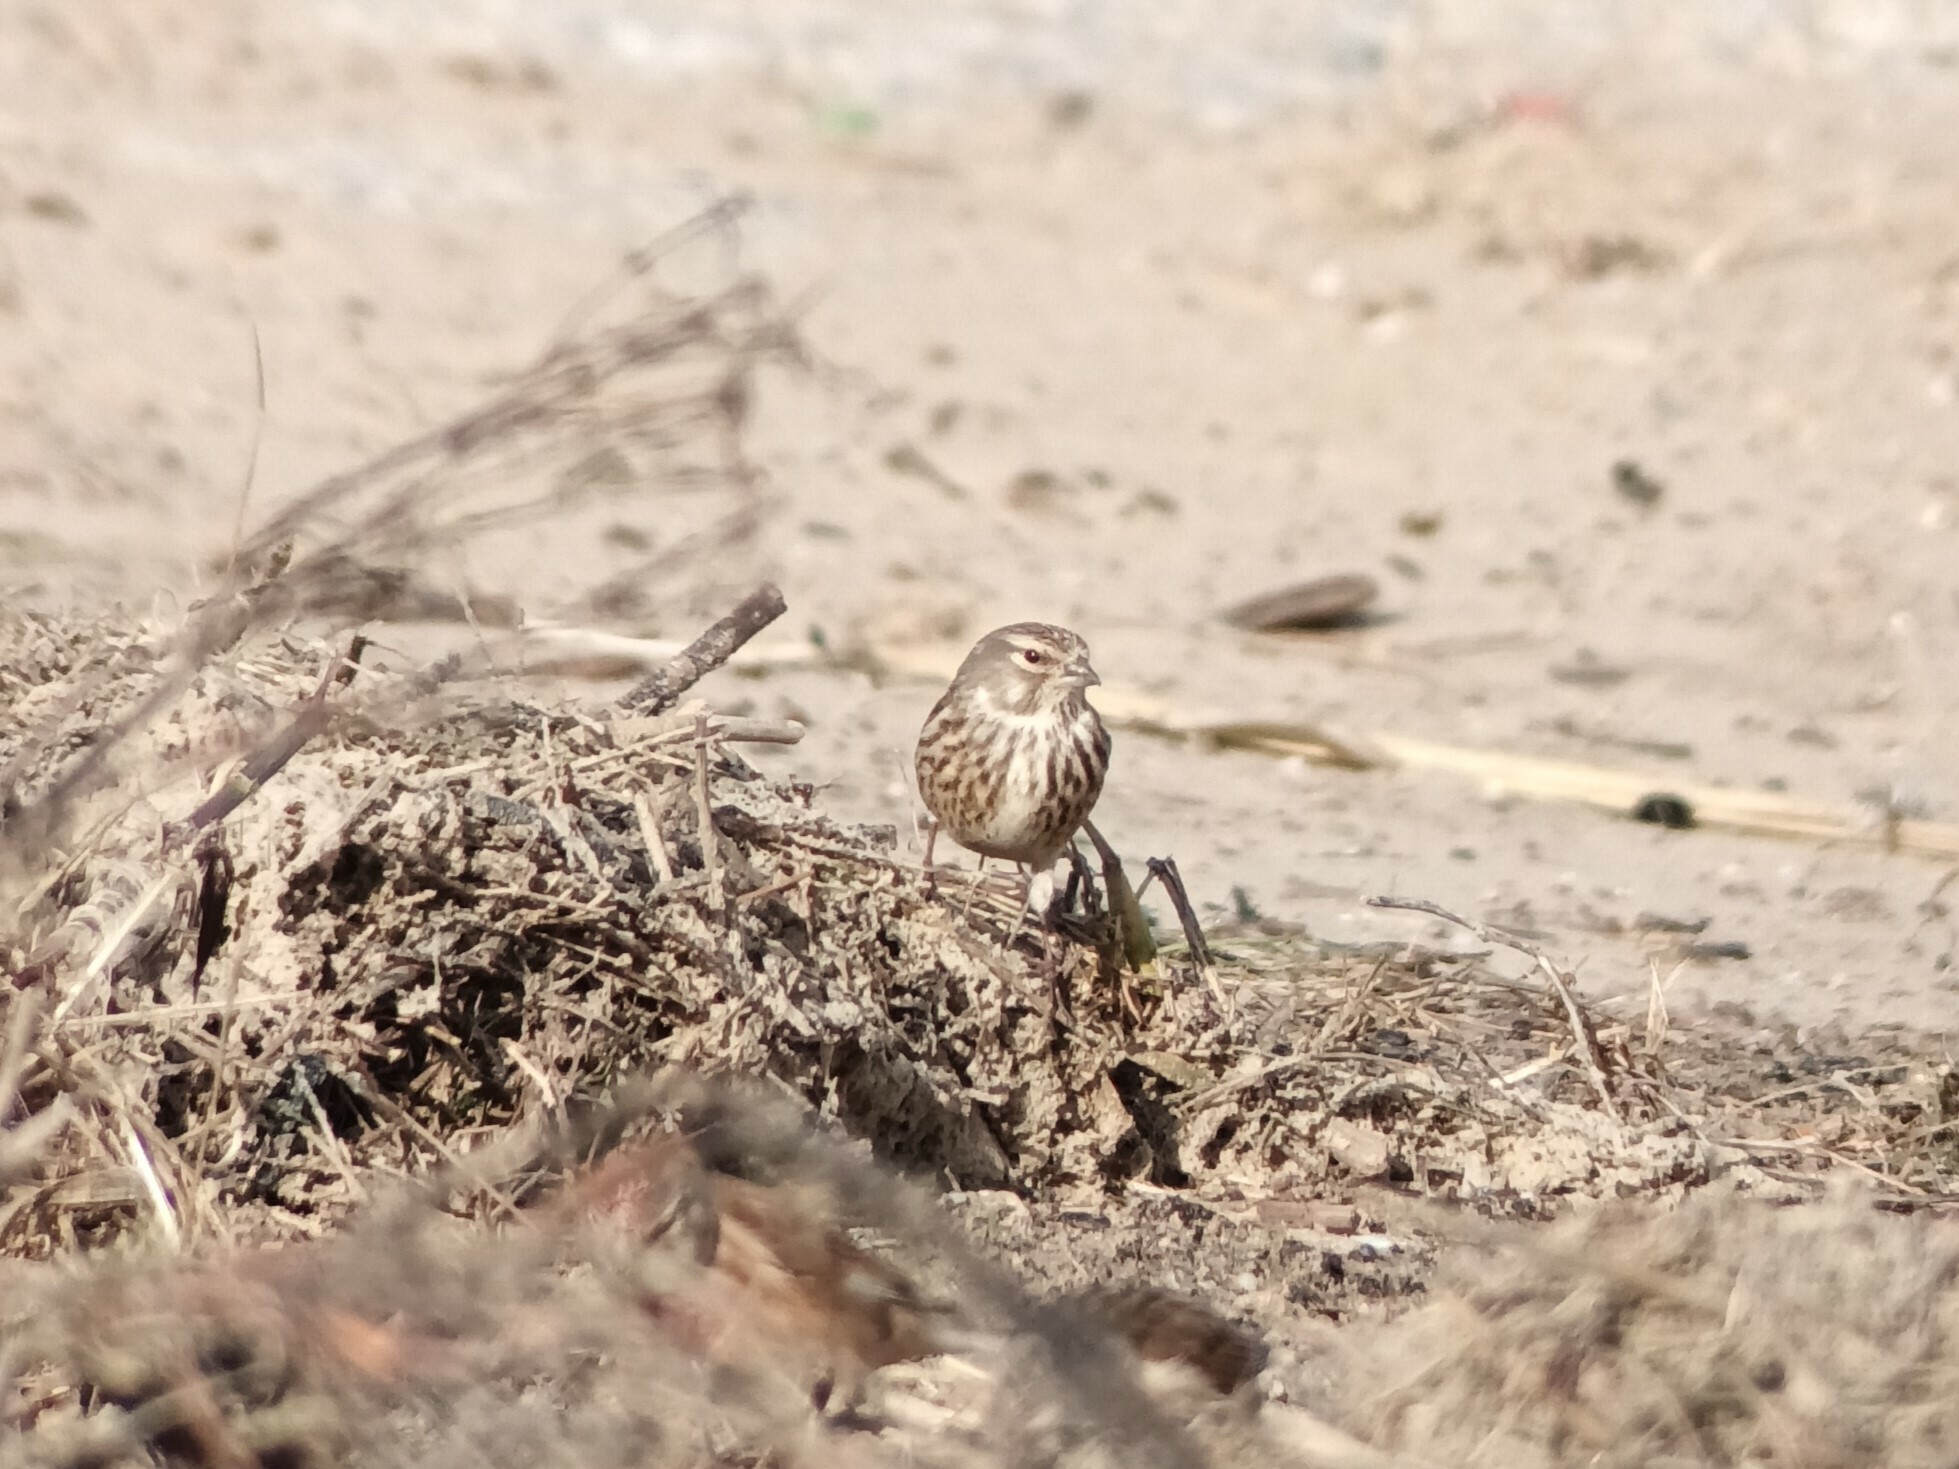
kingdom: Animalia
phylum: Chordata
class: Aves
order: Passeriformes
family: Fringillidae
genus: Linaria
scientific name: Linaria cannabina
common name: Common linnet
